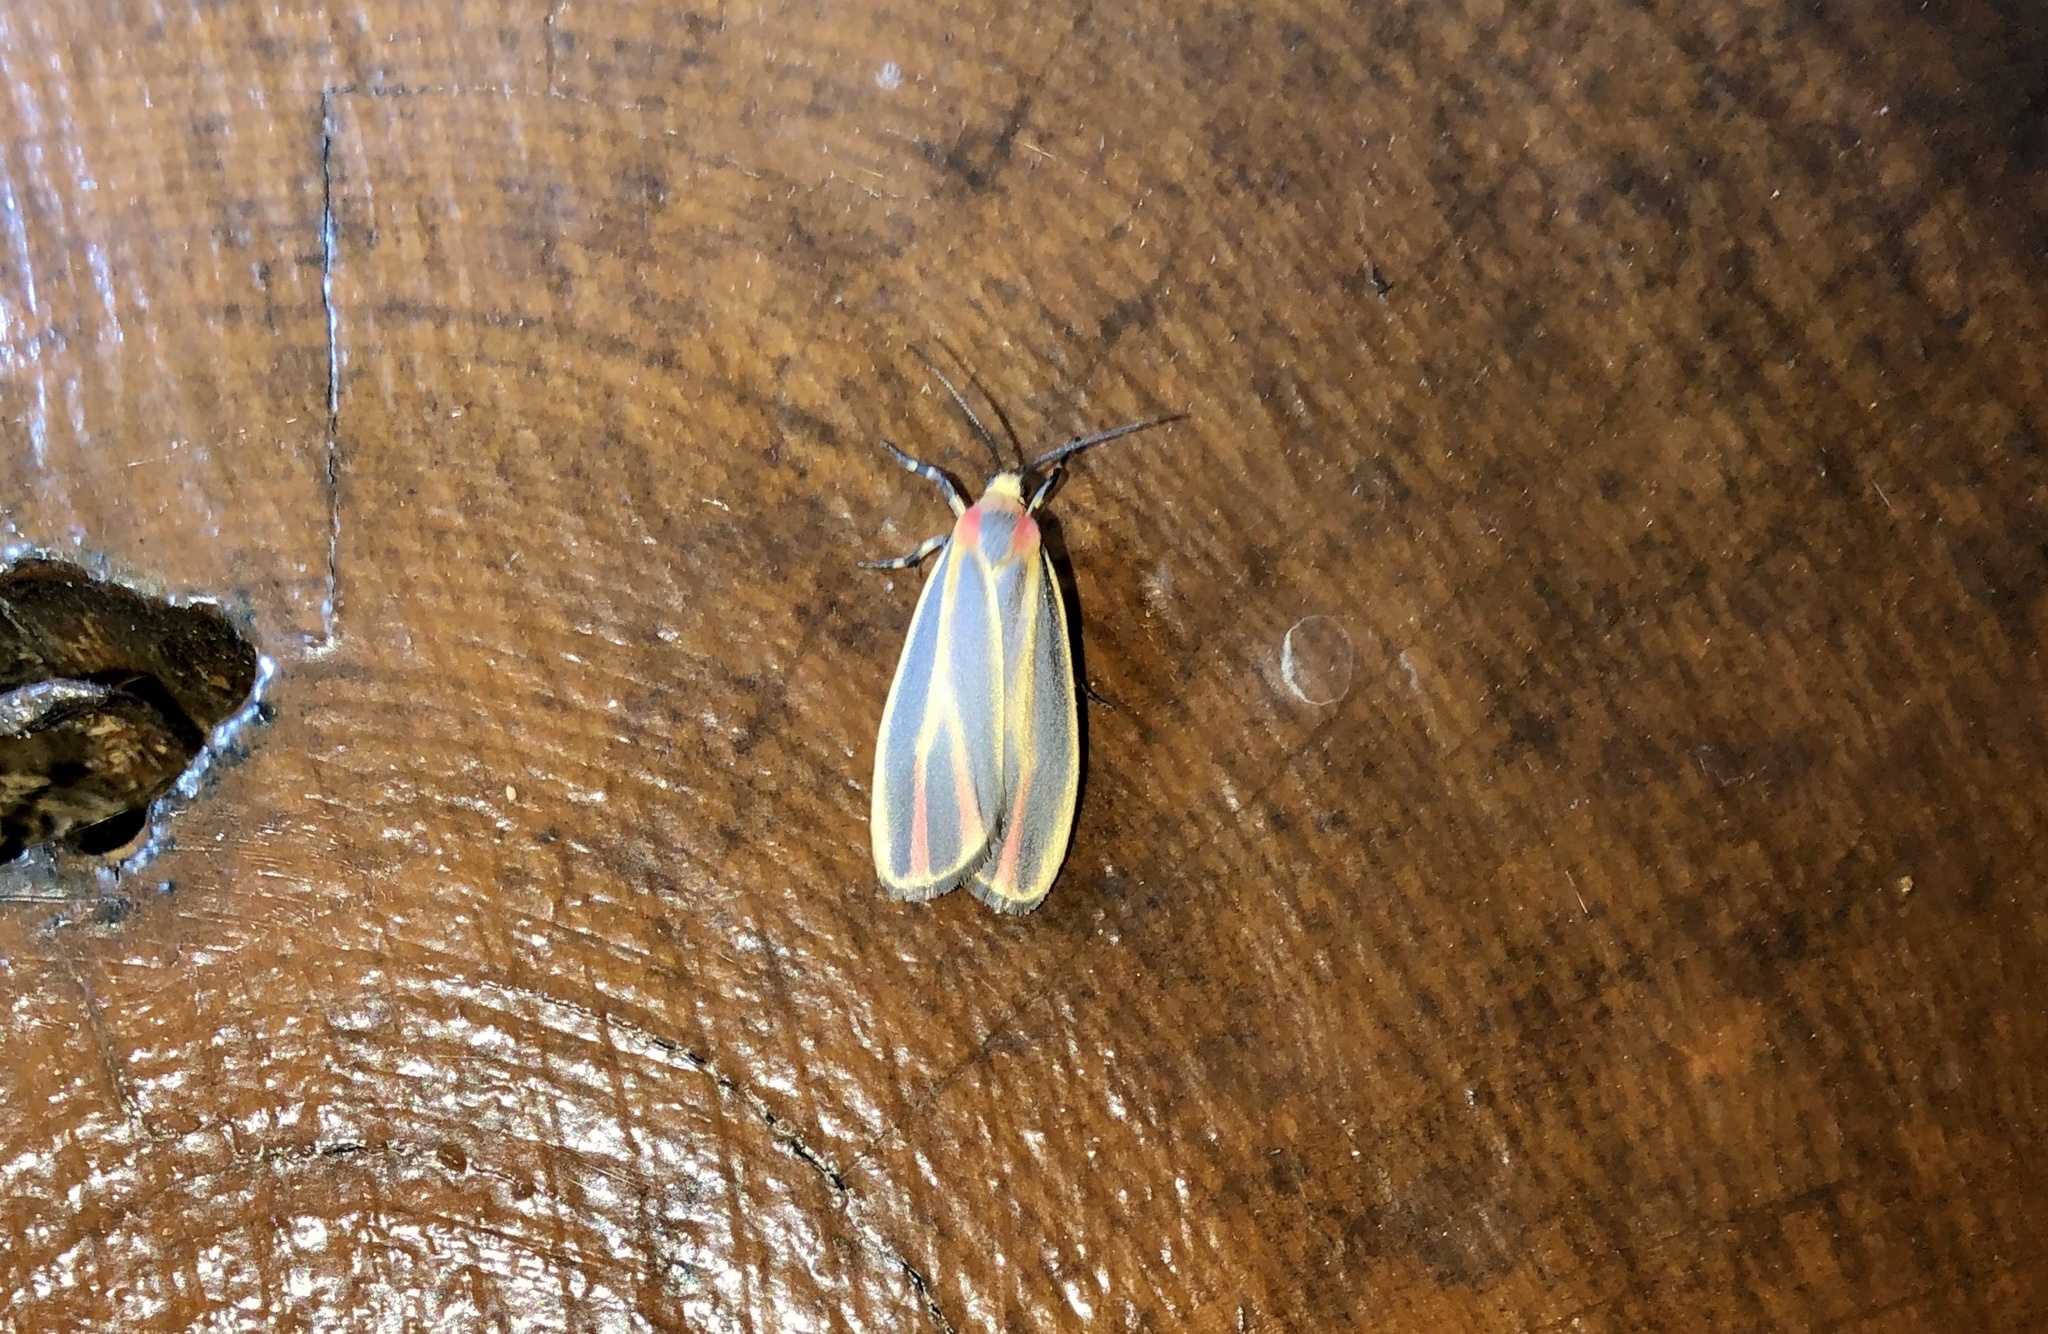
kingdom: Animalia
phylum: Arthropoda
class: Insecta
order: Lepidoptera
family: Erebidae
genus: Hypoprepia
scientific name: Hypoprepia fucosa
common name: Painted lichen moth
